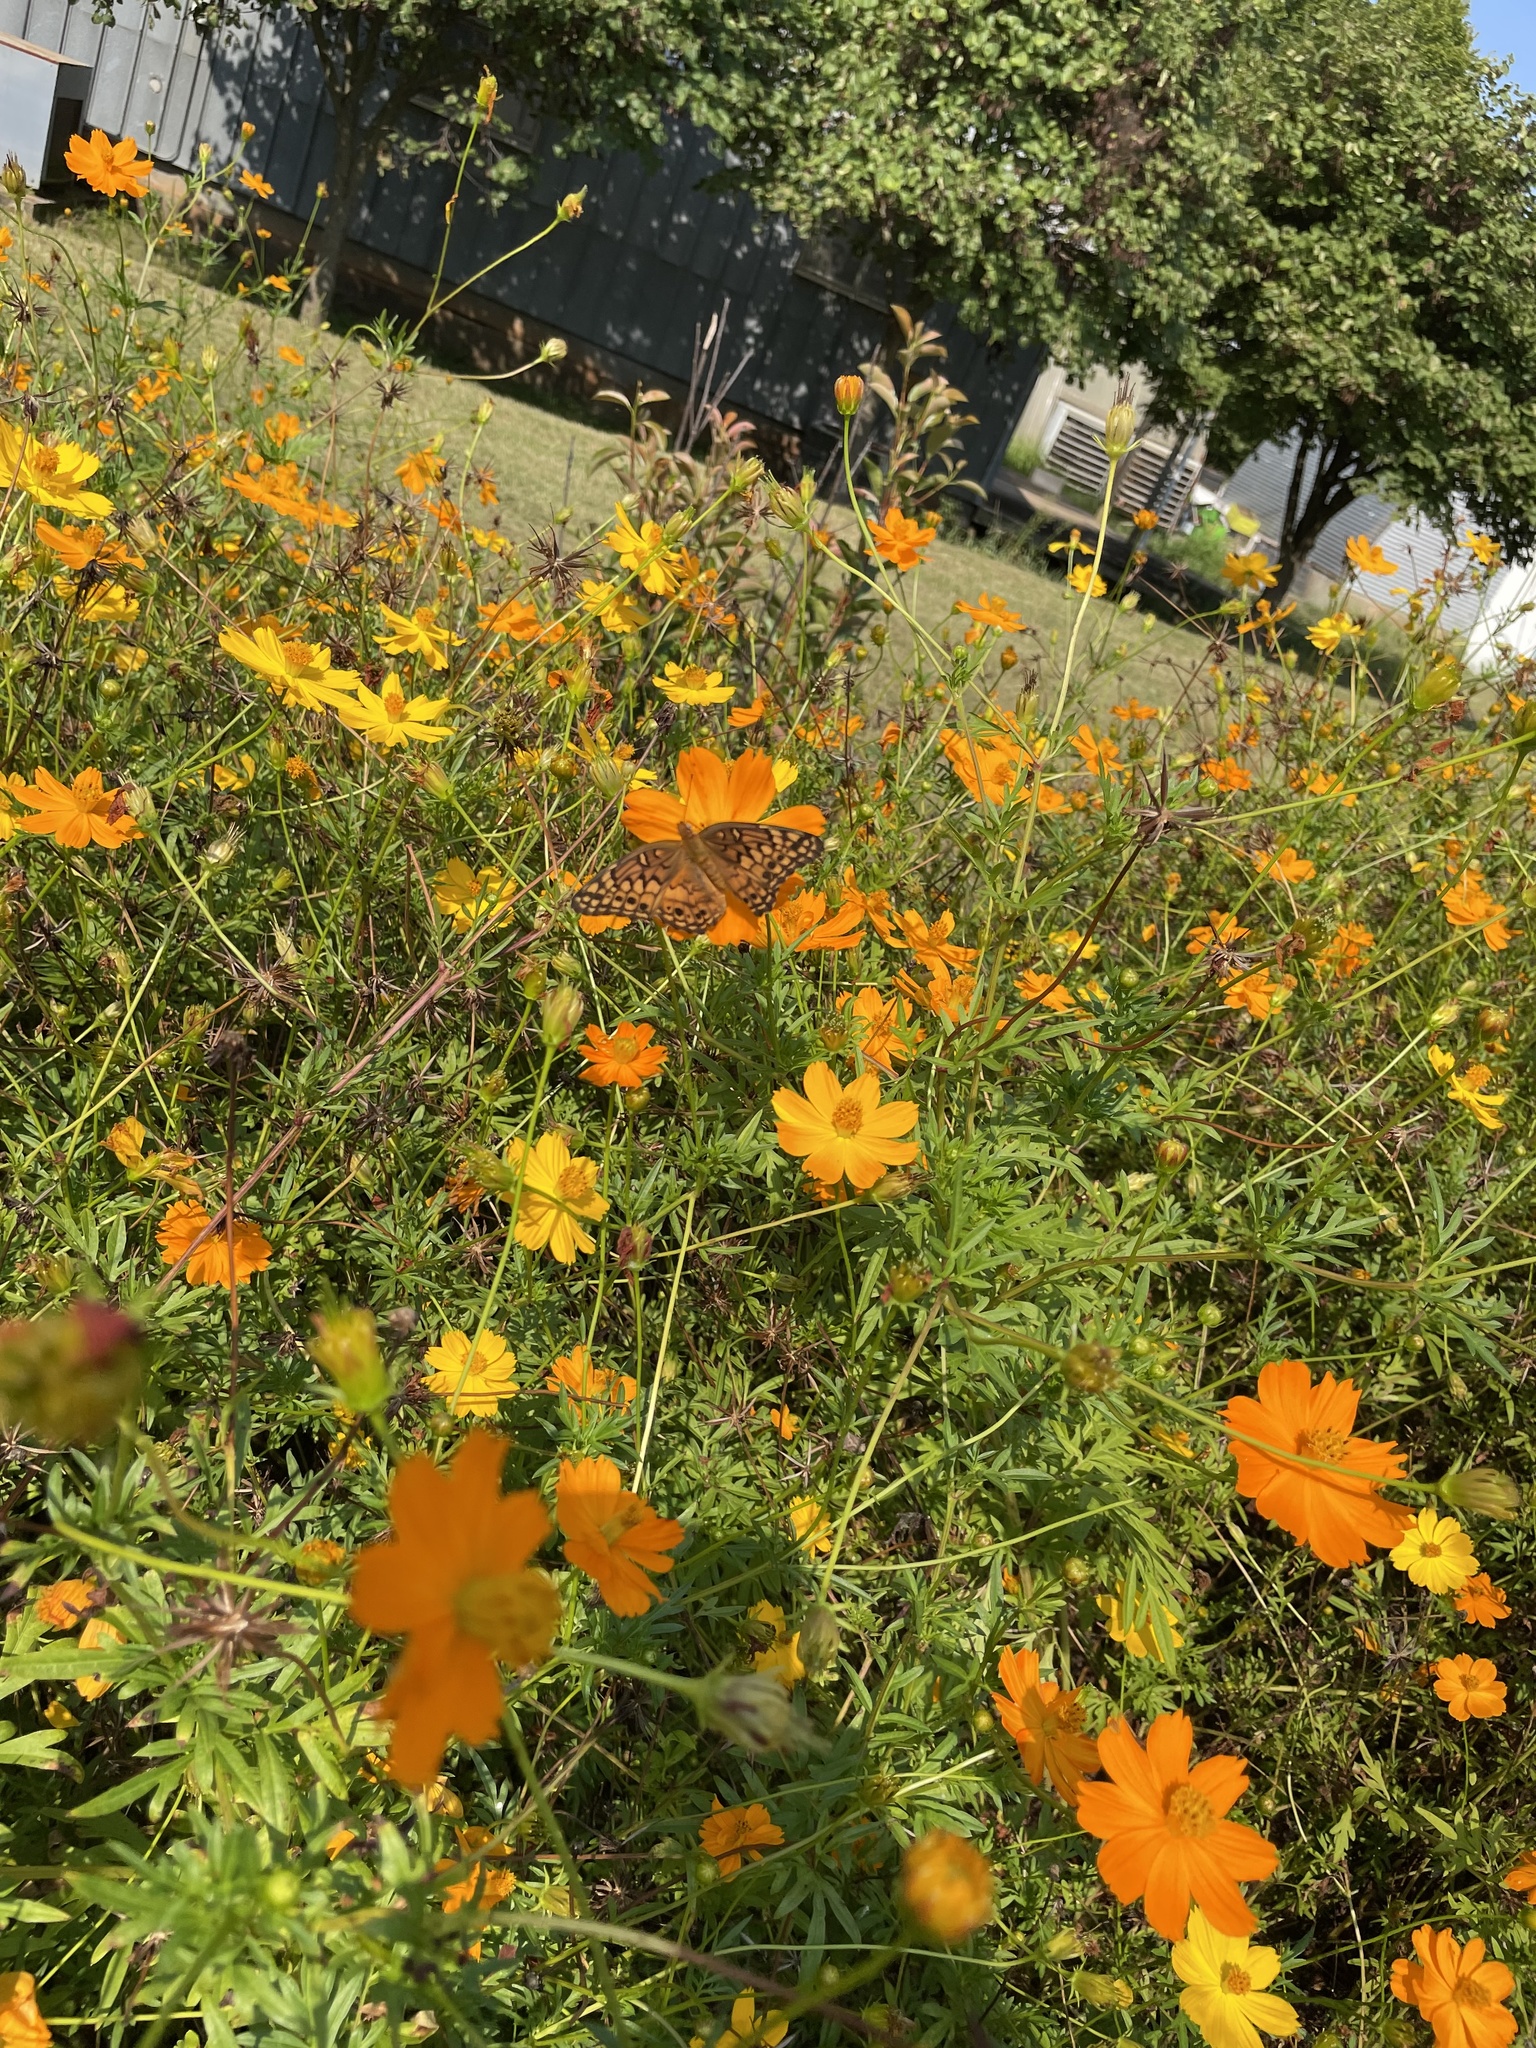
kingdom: Animalia
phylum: Arthropoda
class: Insecta
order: Lepidoptera
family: Nymphalidae
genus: Euptoieta
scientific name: Euptoieta claudia
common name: Variegated fritillary
